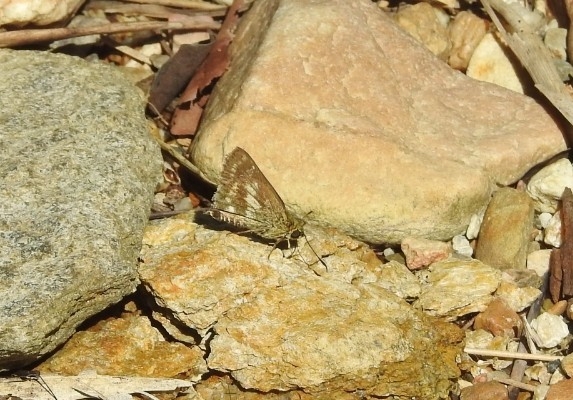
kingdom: Animalia
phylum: Arthropoda
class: Insecta
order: Lepidoptera
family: Hesperiidae
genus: Halpe
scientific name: Halpe homolea
